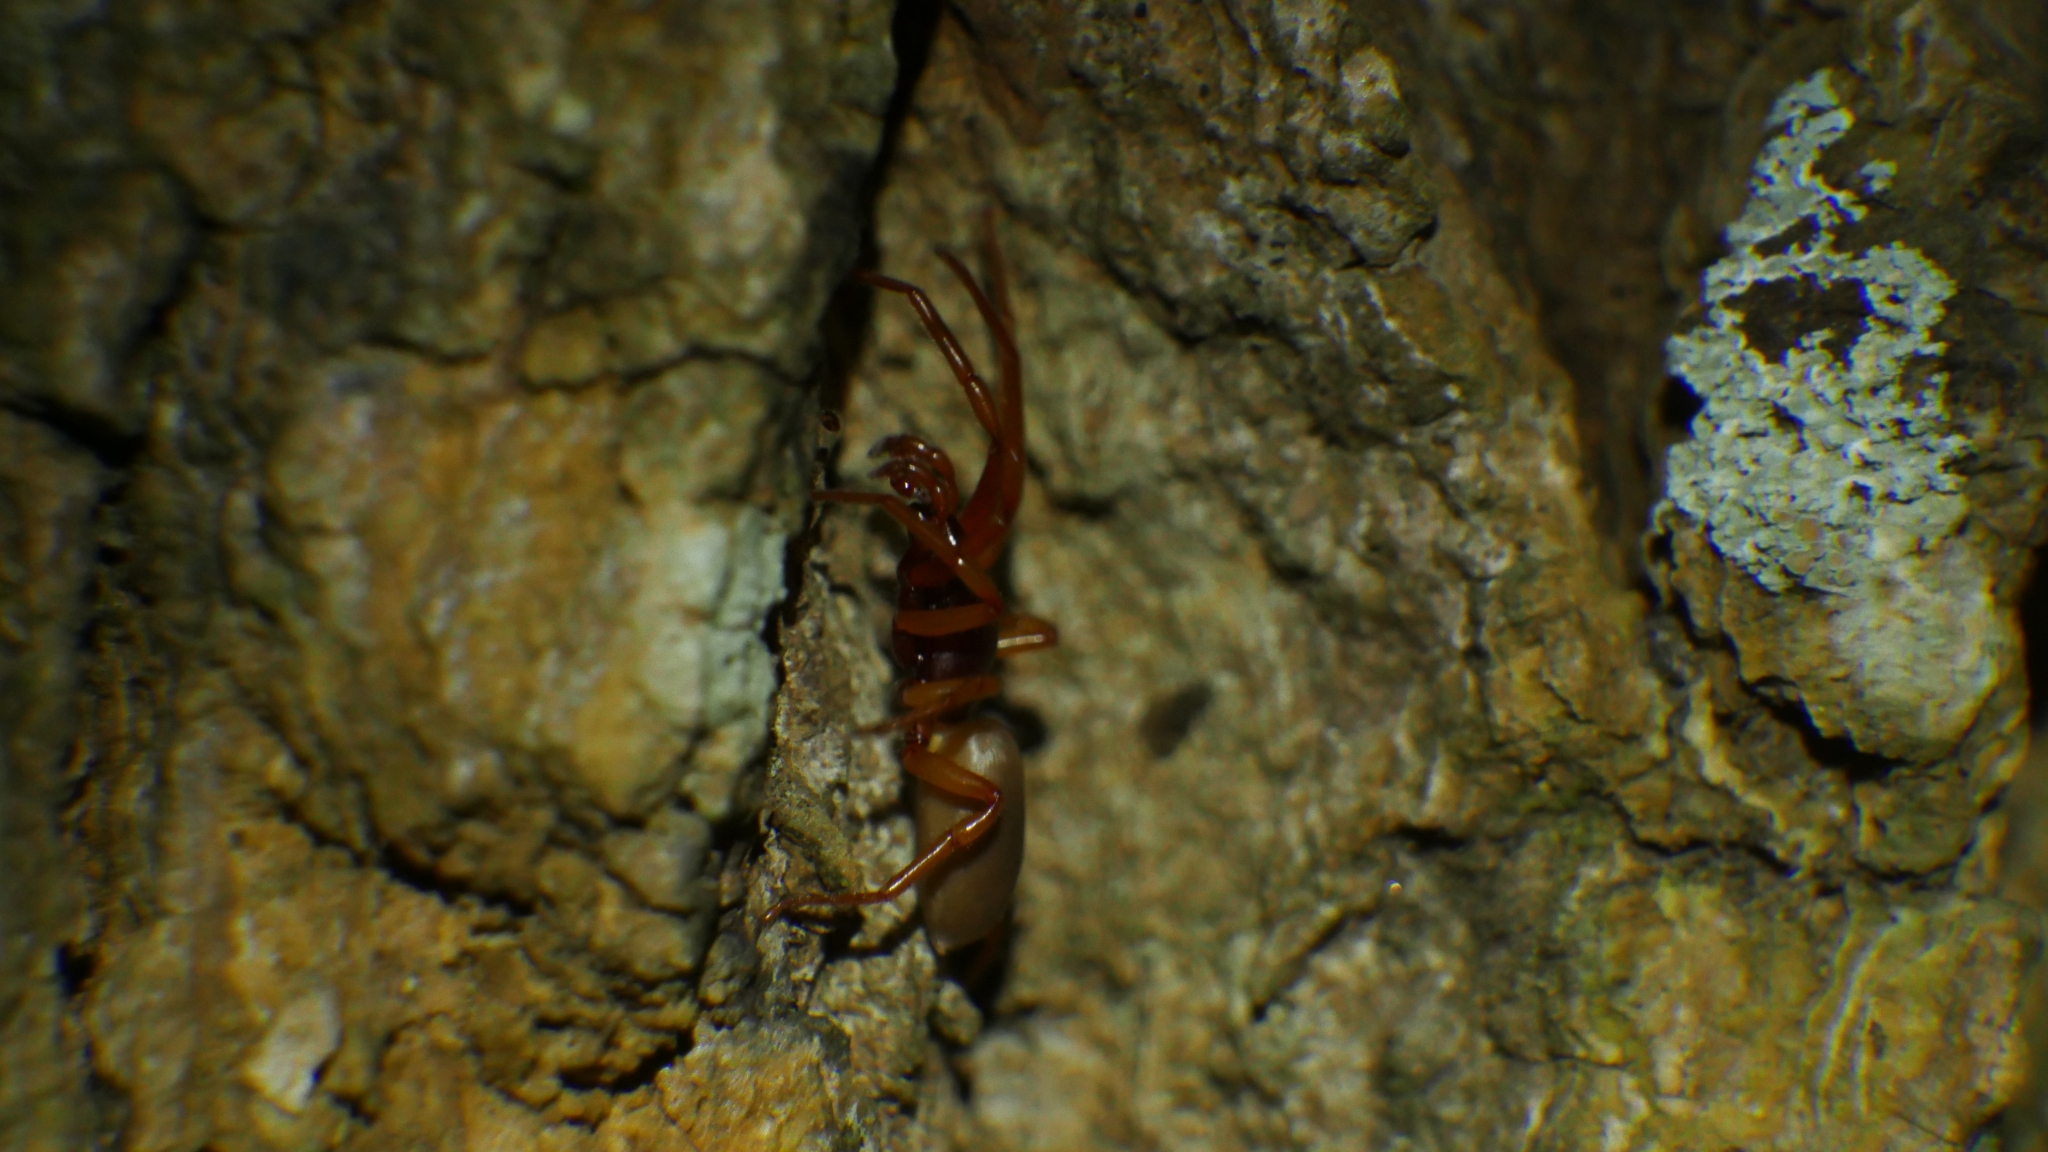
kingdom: Animalia
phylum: Arthropoda
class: Arachnida
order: Araneae
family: Dysderidae
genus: Dysdera
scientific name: Dysdera crocata
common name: Woodlouse spider
